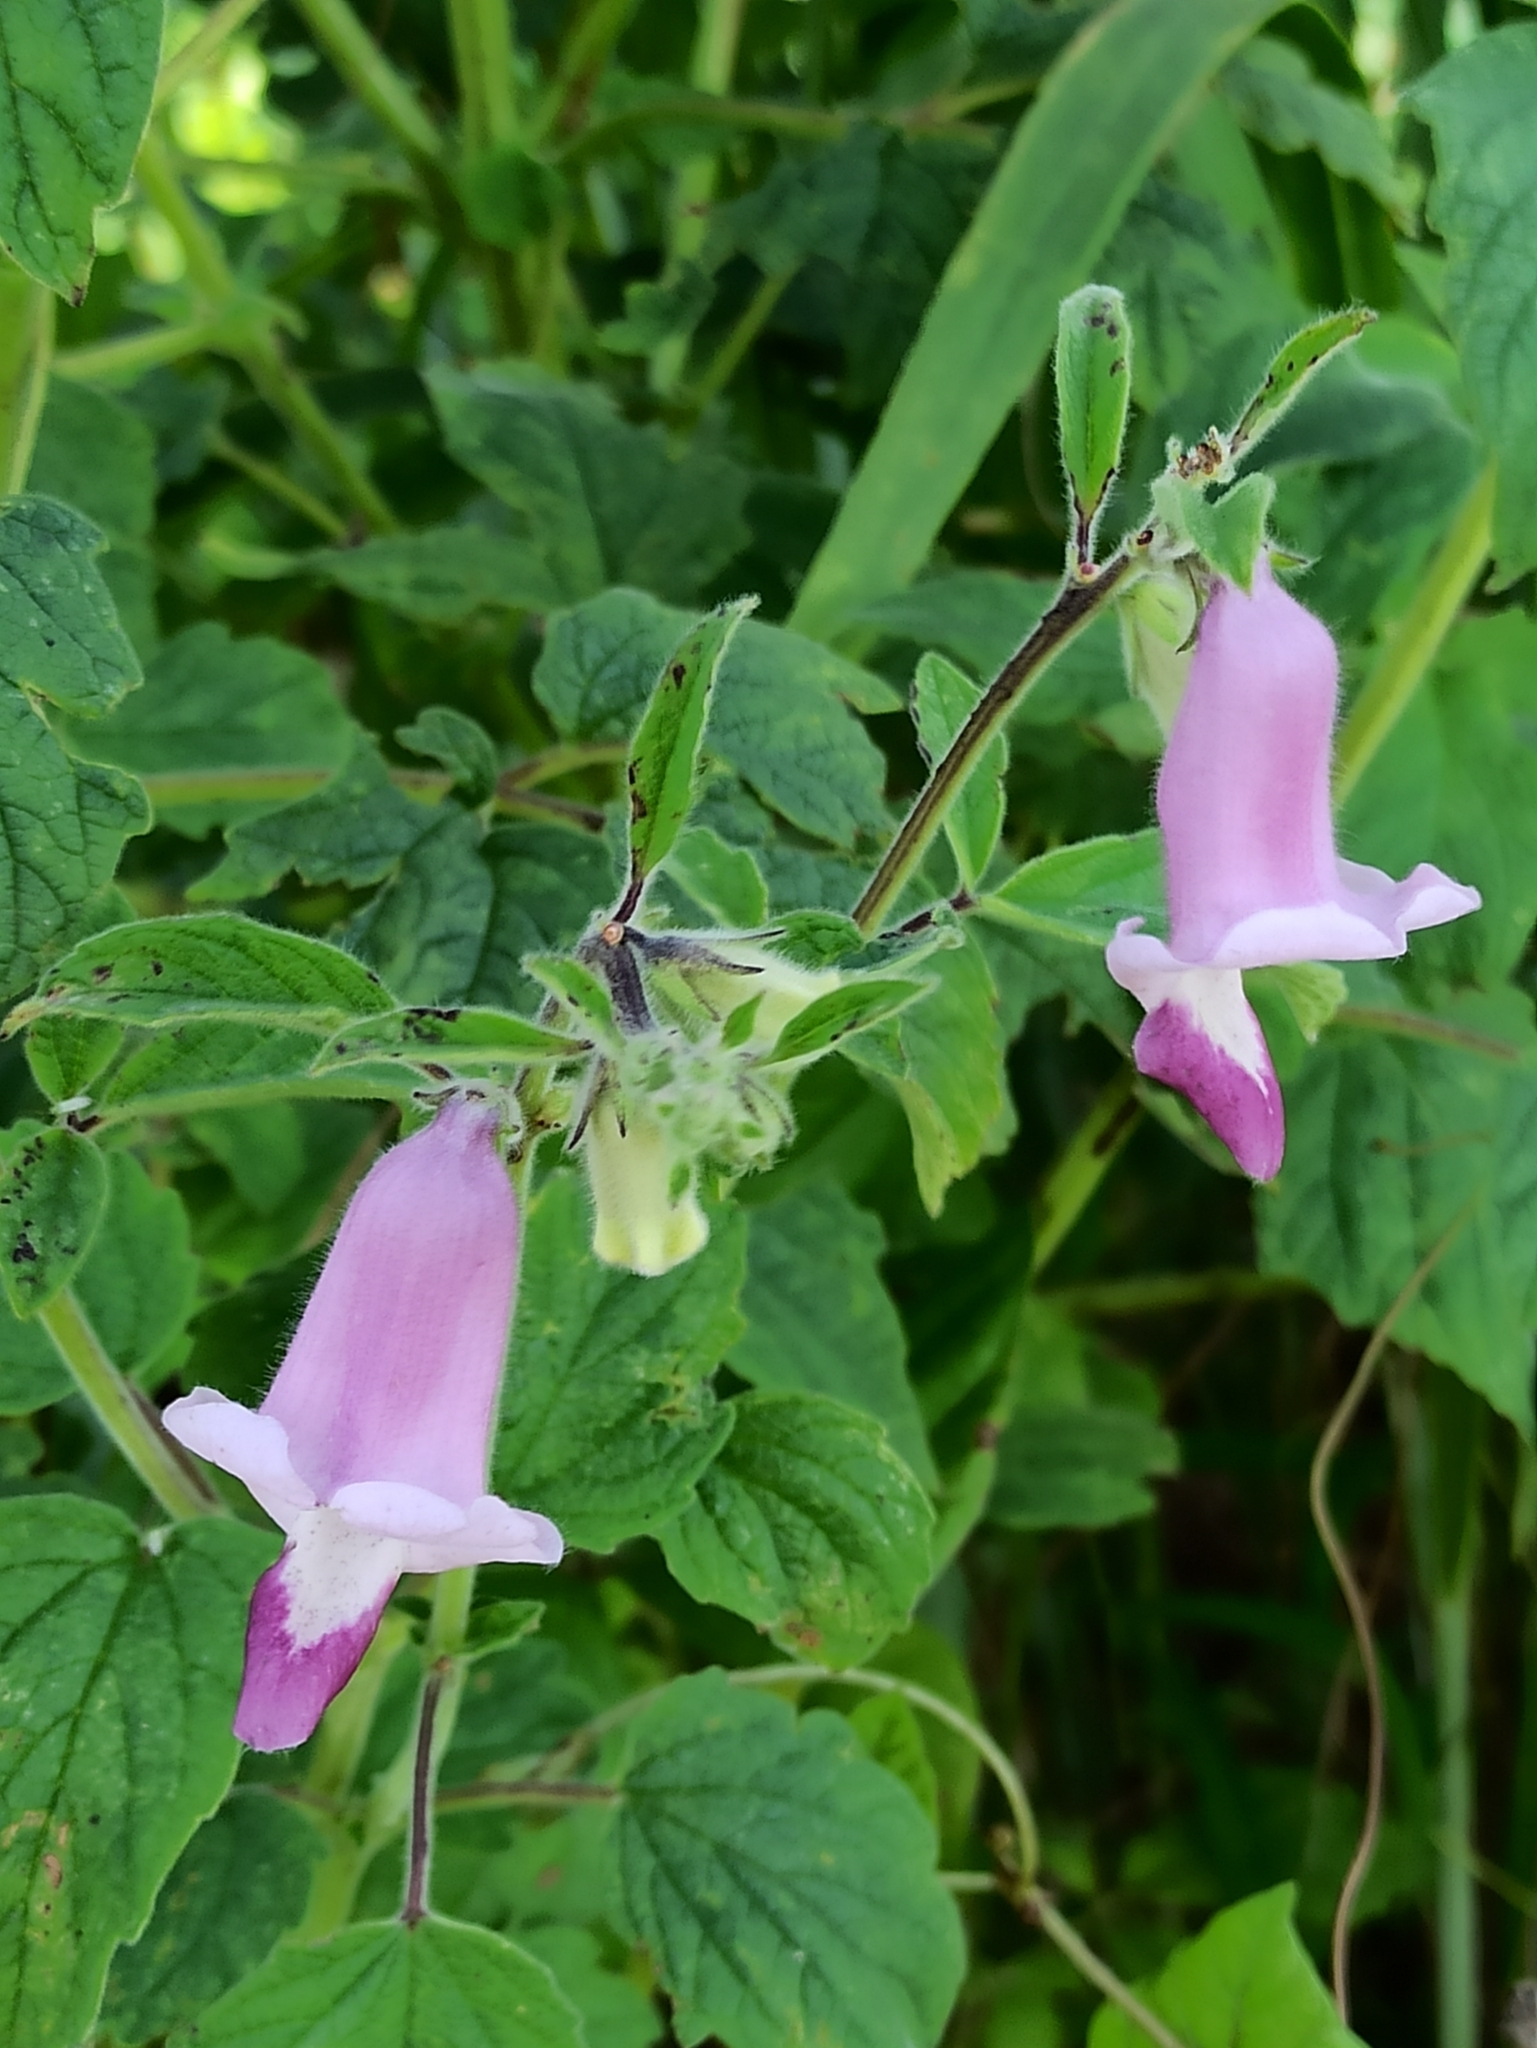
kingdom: Plantae
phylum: Tracheophyta
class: Magnoliopsida
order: Lamiales
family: Pedaliaceae
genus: Sesamum
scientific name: Sesamum indicum
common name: Sesame
